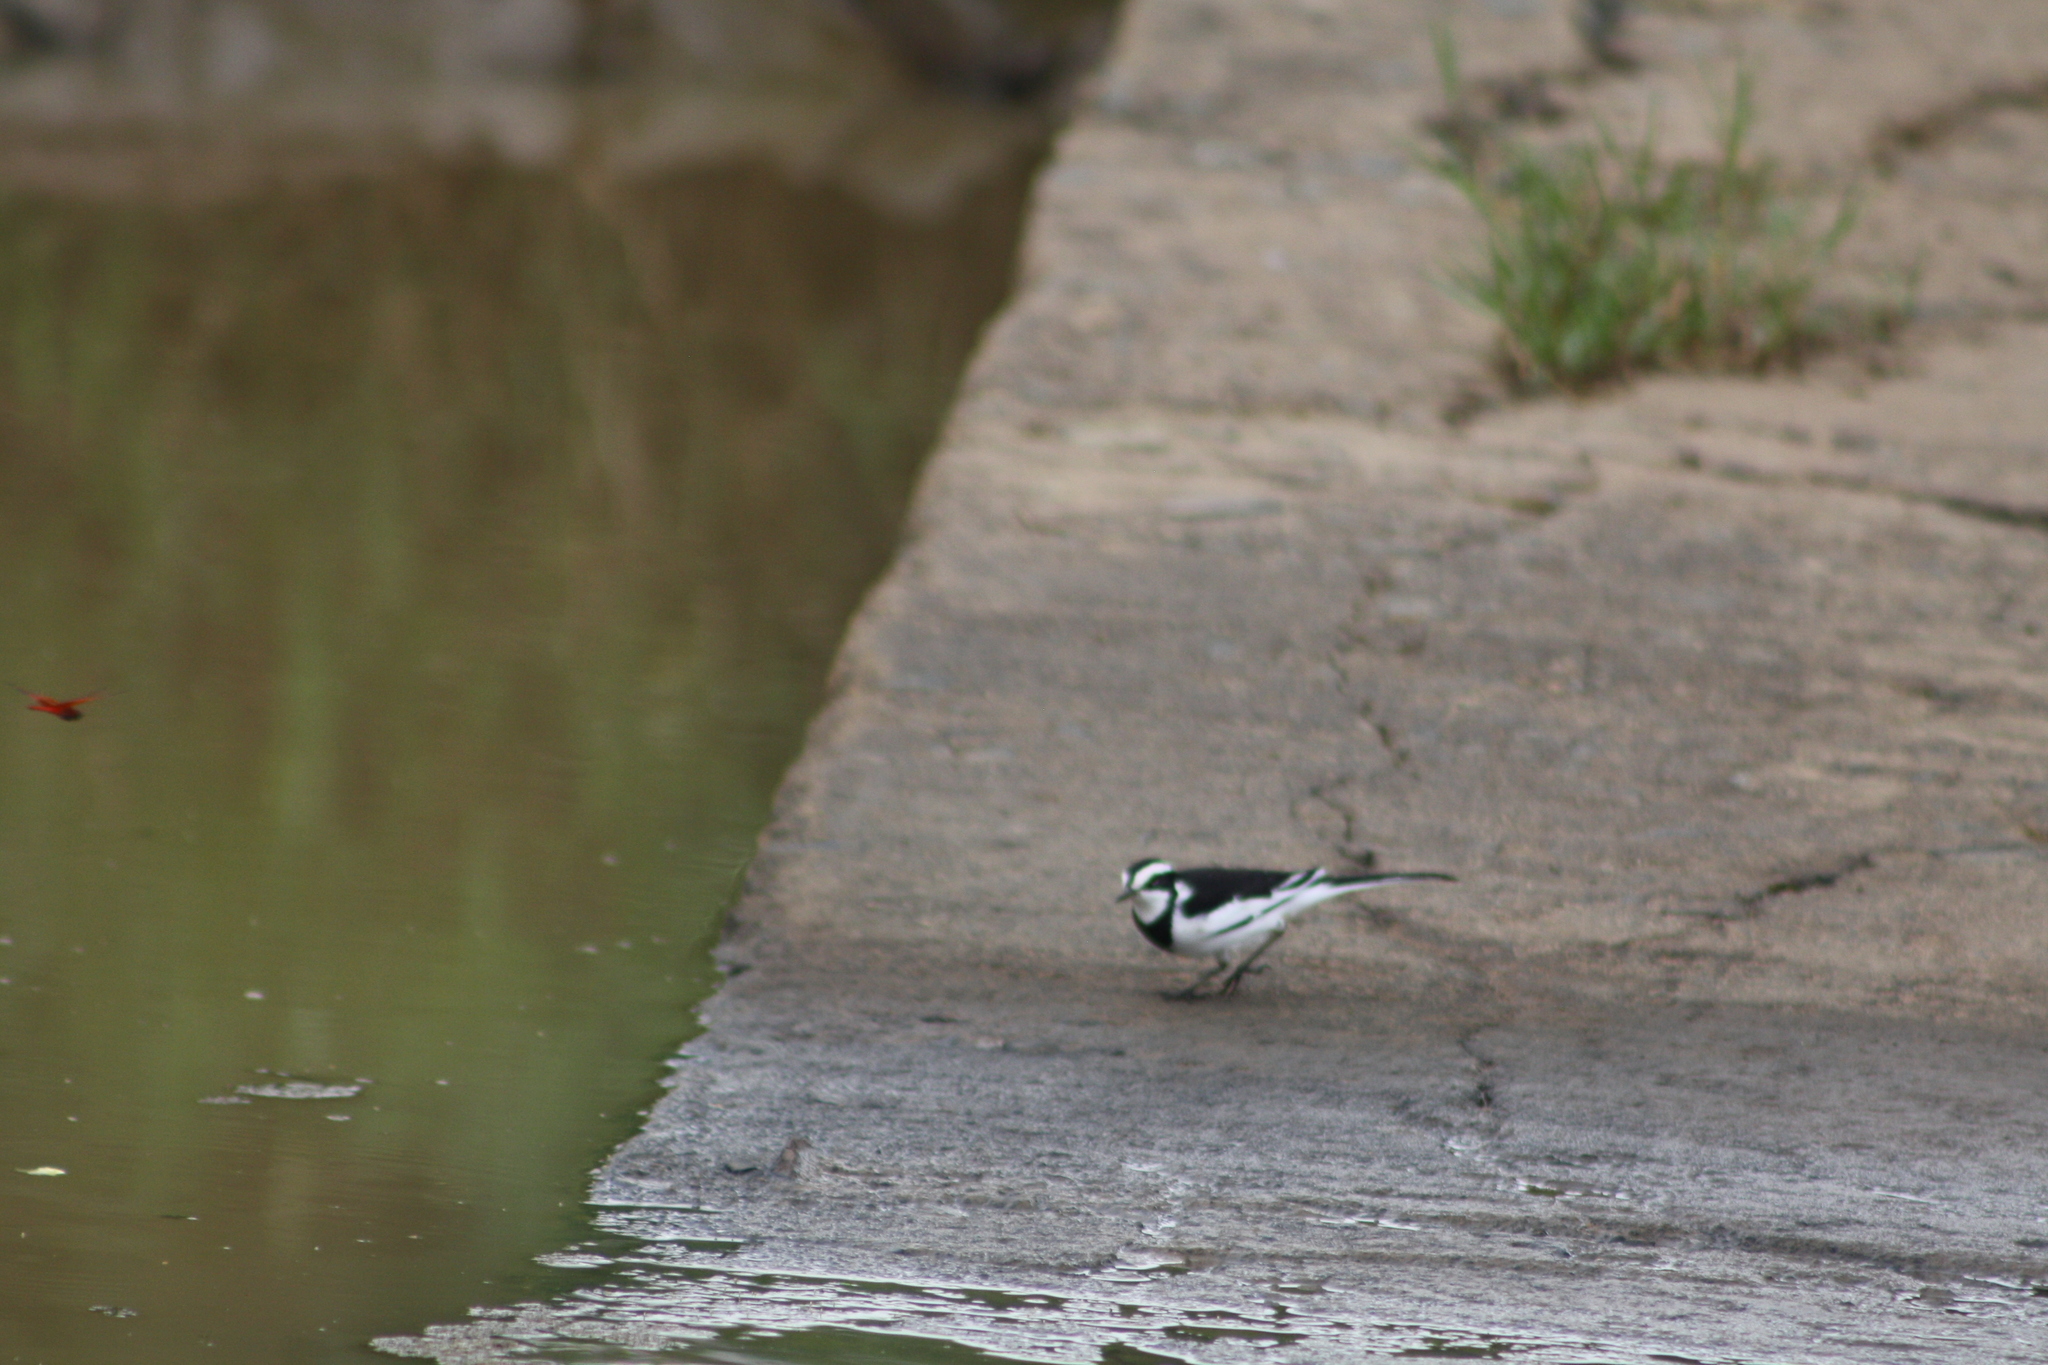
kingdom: Animalia
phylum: Chordata
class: Aves
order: Passeriformes
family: Motacillidae
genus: Motacilla
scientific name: Motacilla aguimp
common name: African pied wagtail
